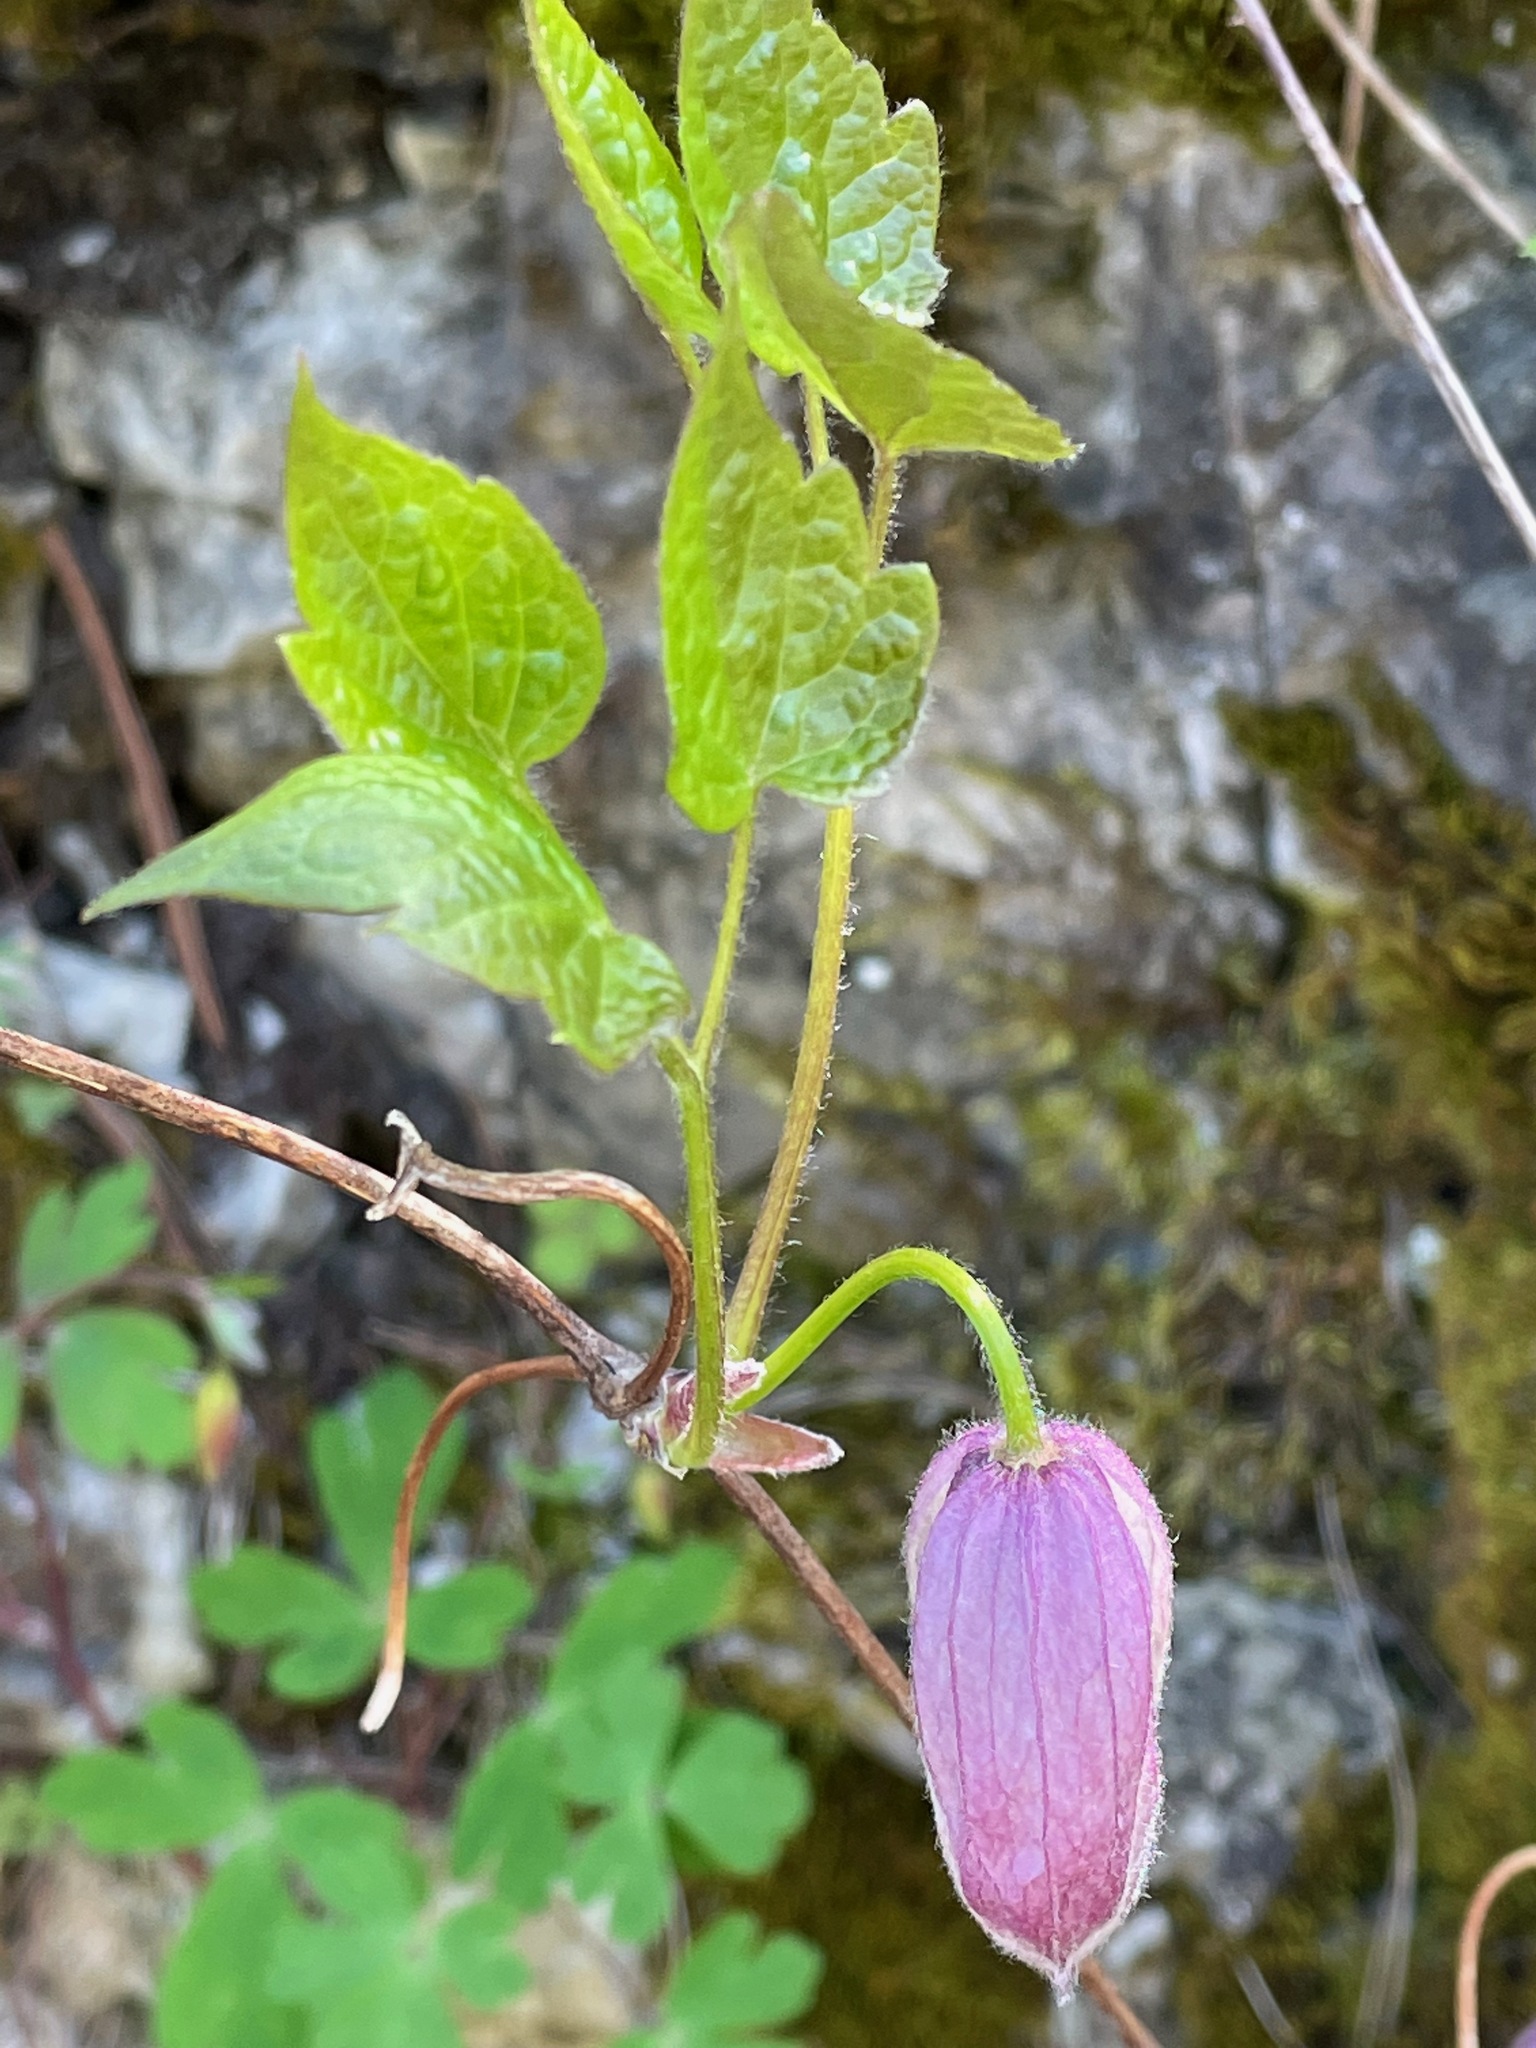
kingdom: Plantae
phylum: Tracheophyta
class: Magnoliopsida
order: Ranunculales
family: Ranunculaceae
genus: Clematis
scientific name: Clematis occidentalis
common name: Purple clematis
